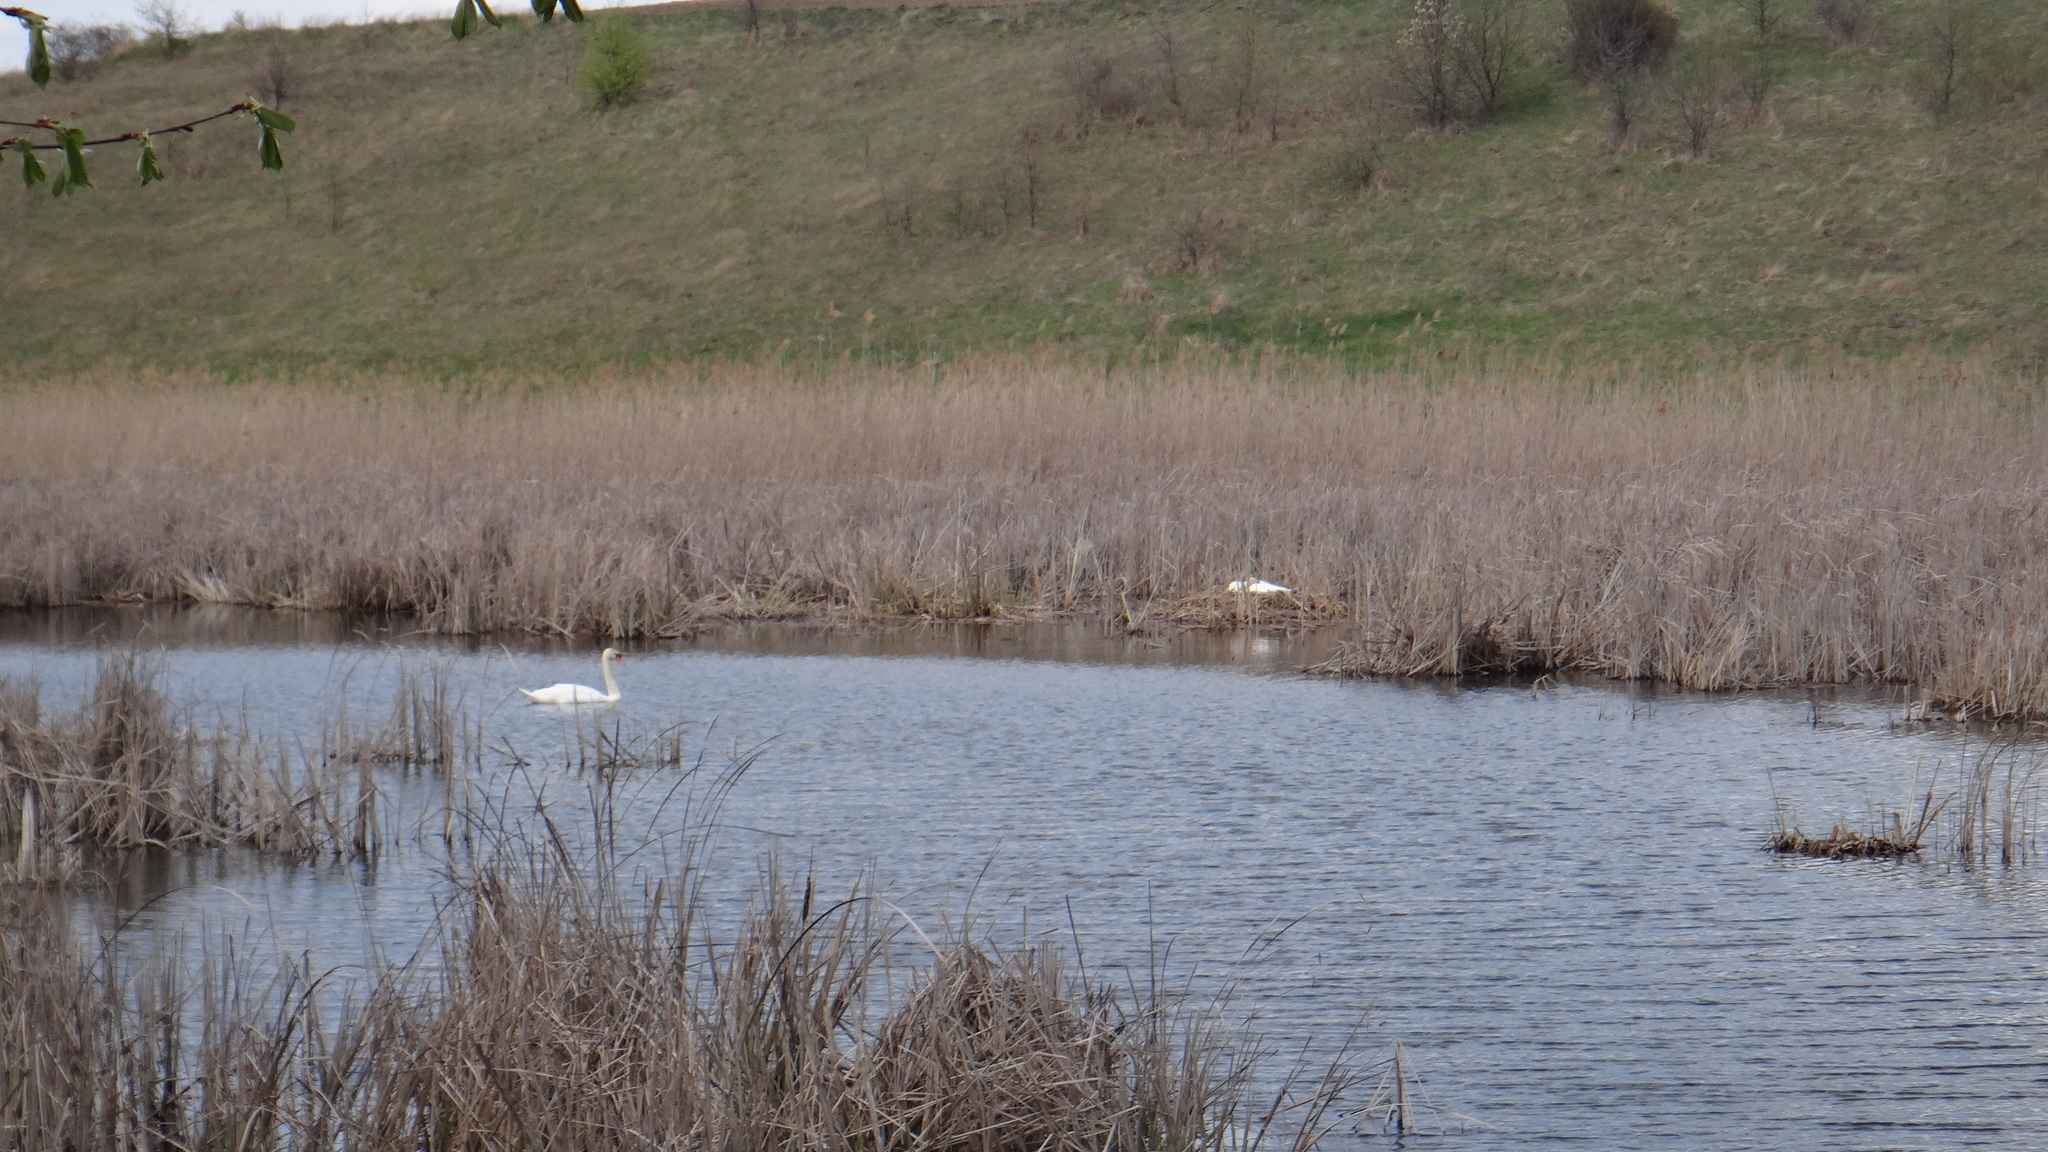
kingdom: Animalia
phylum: Chordata
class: Aves
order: Anseriformes
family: Anatidae
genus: Cygnus
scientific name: Cygnus olor
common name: Mute swan
